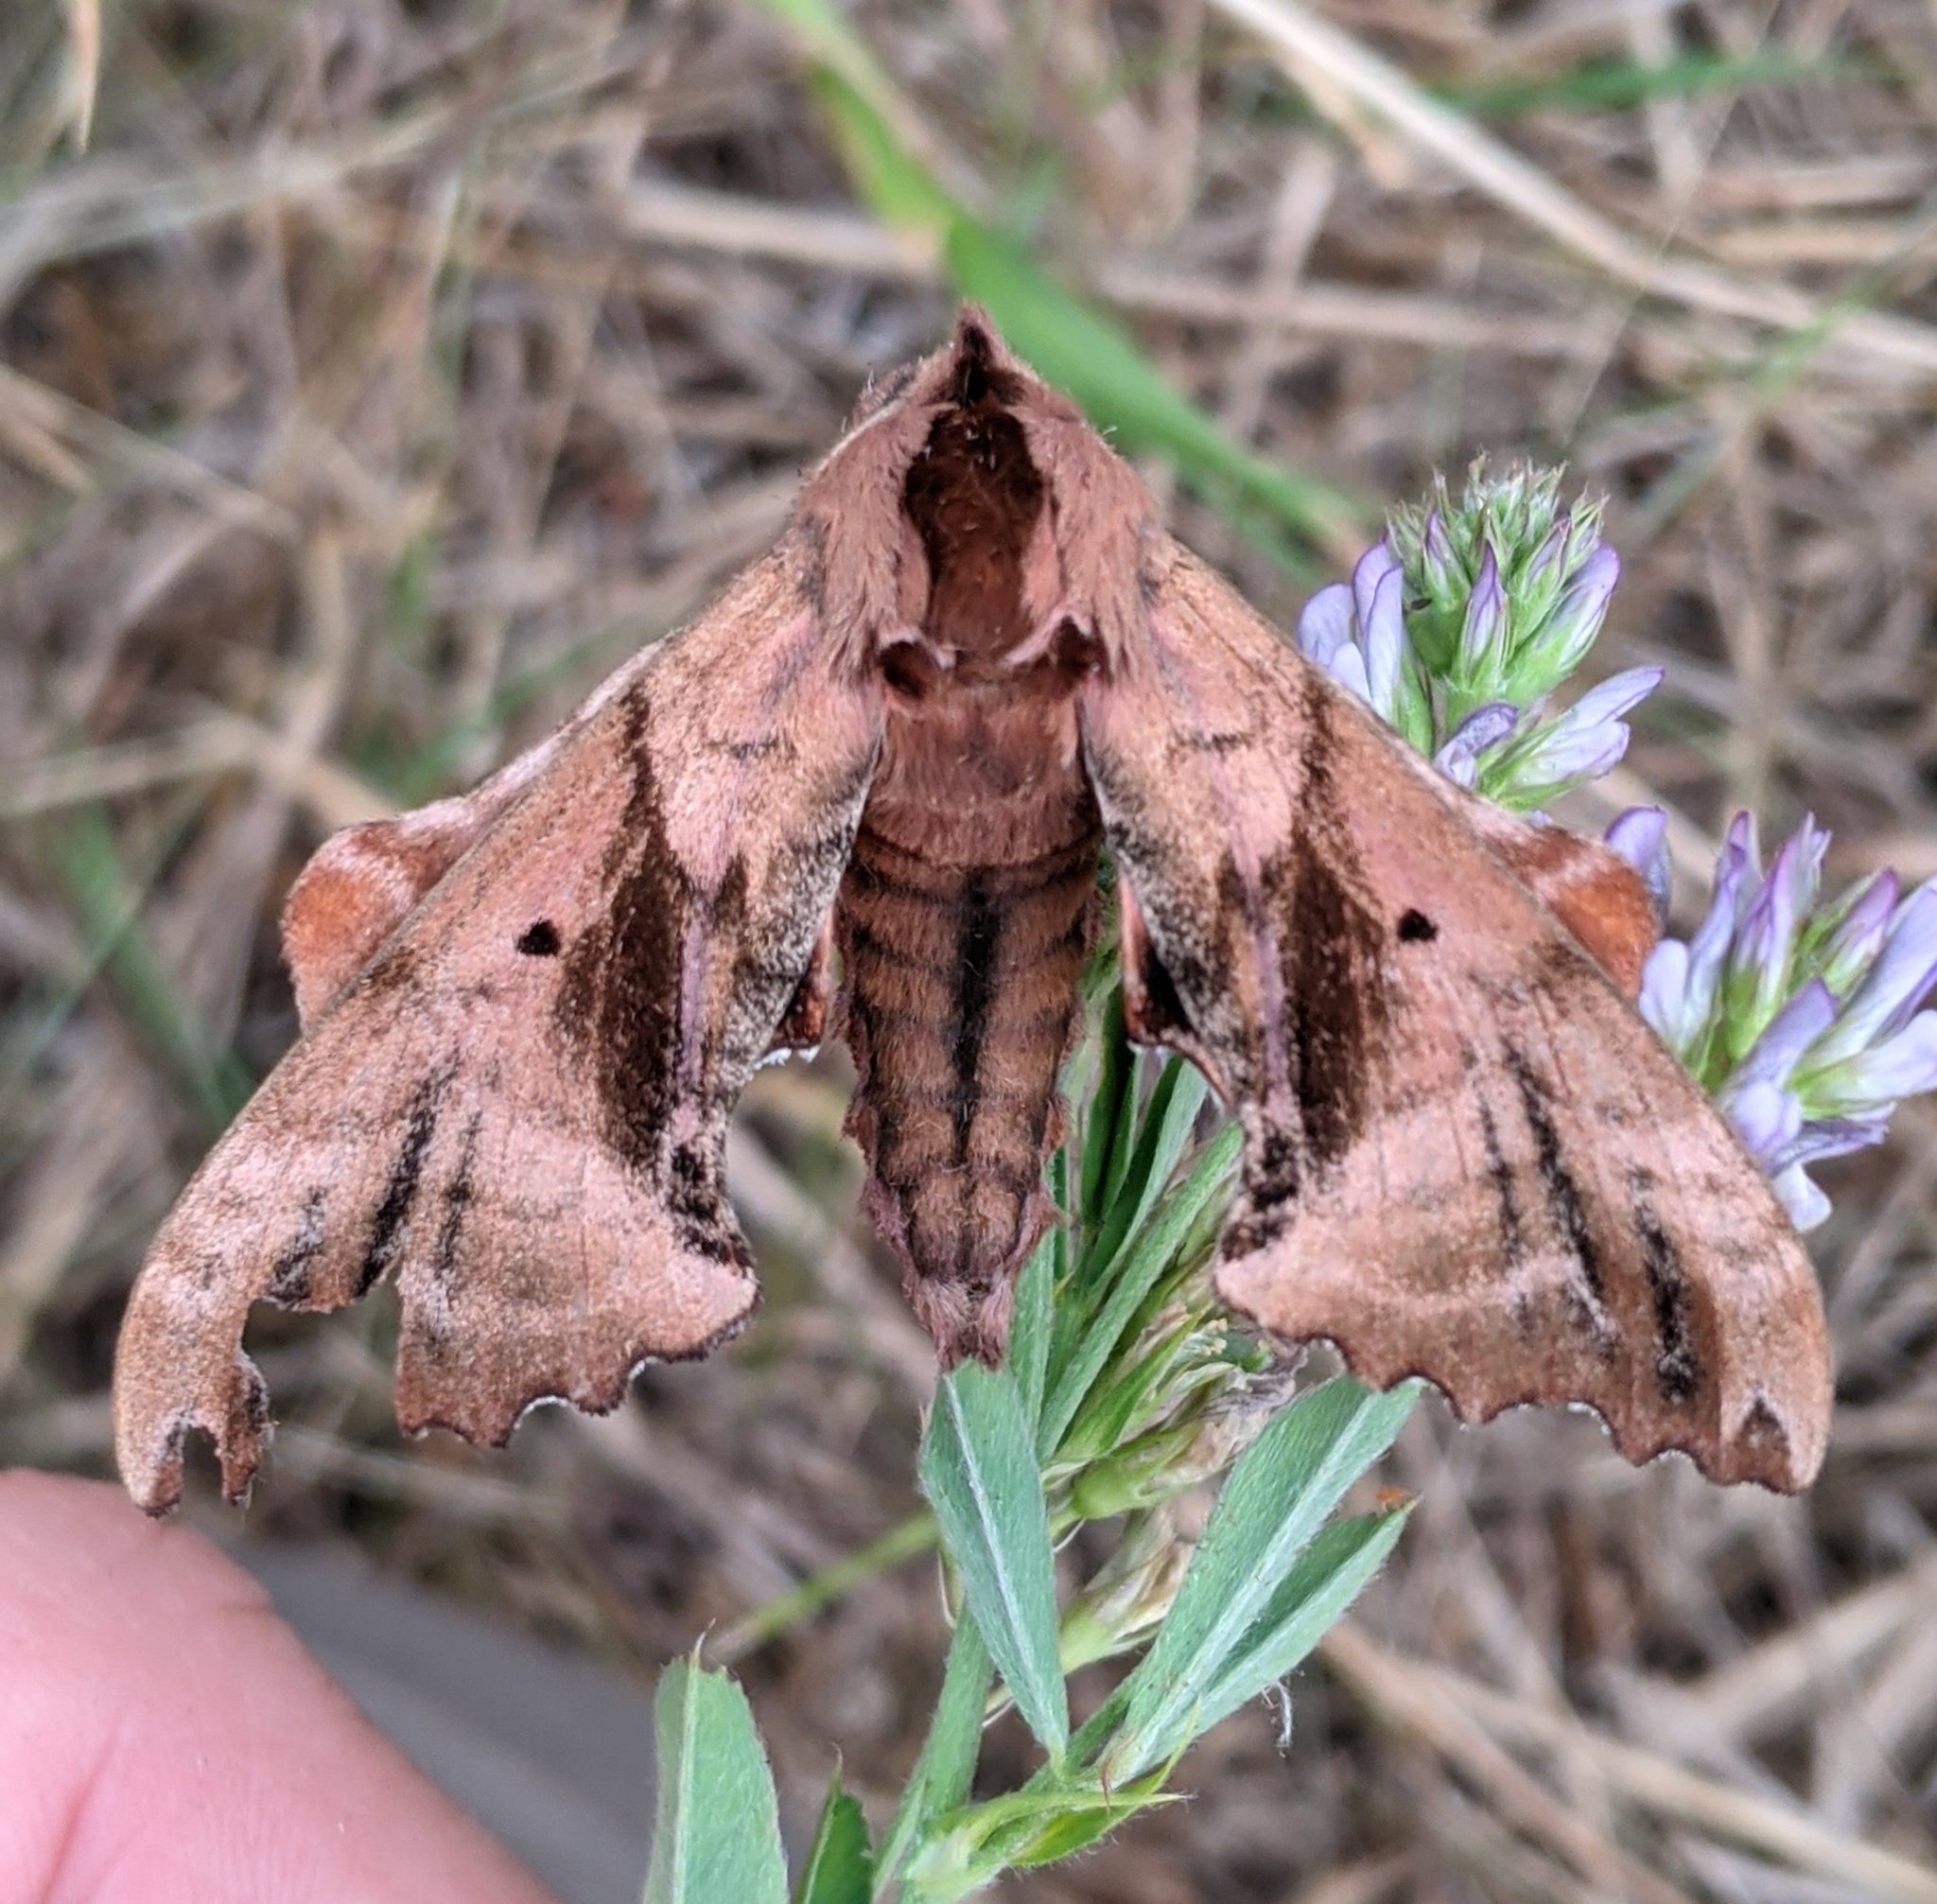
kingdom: Animalia
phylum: Arthropoda
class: Insecta
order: Lepidoptera
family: Sphingidae
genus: Paonias
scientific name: Paonias excaecata
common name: Blind-eyed sphinx
